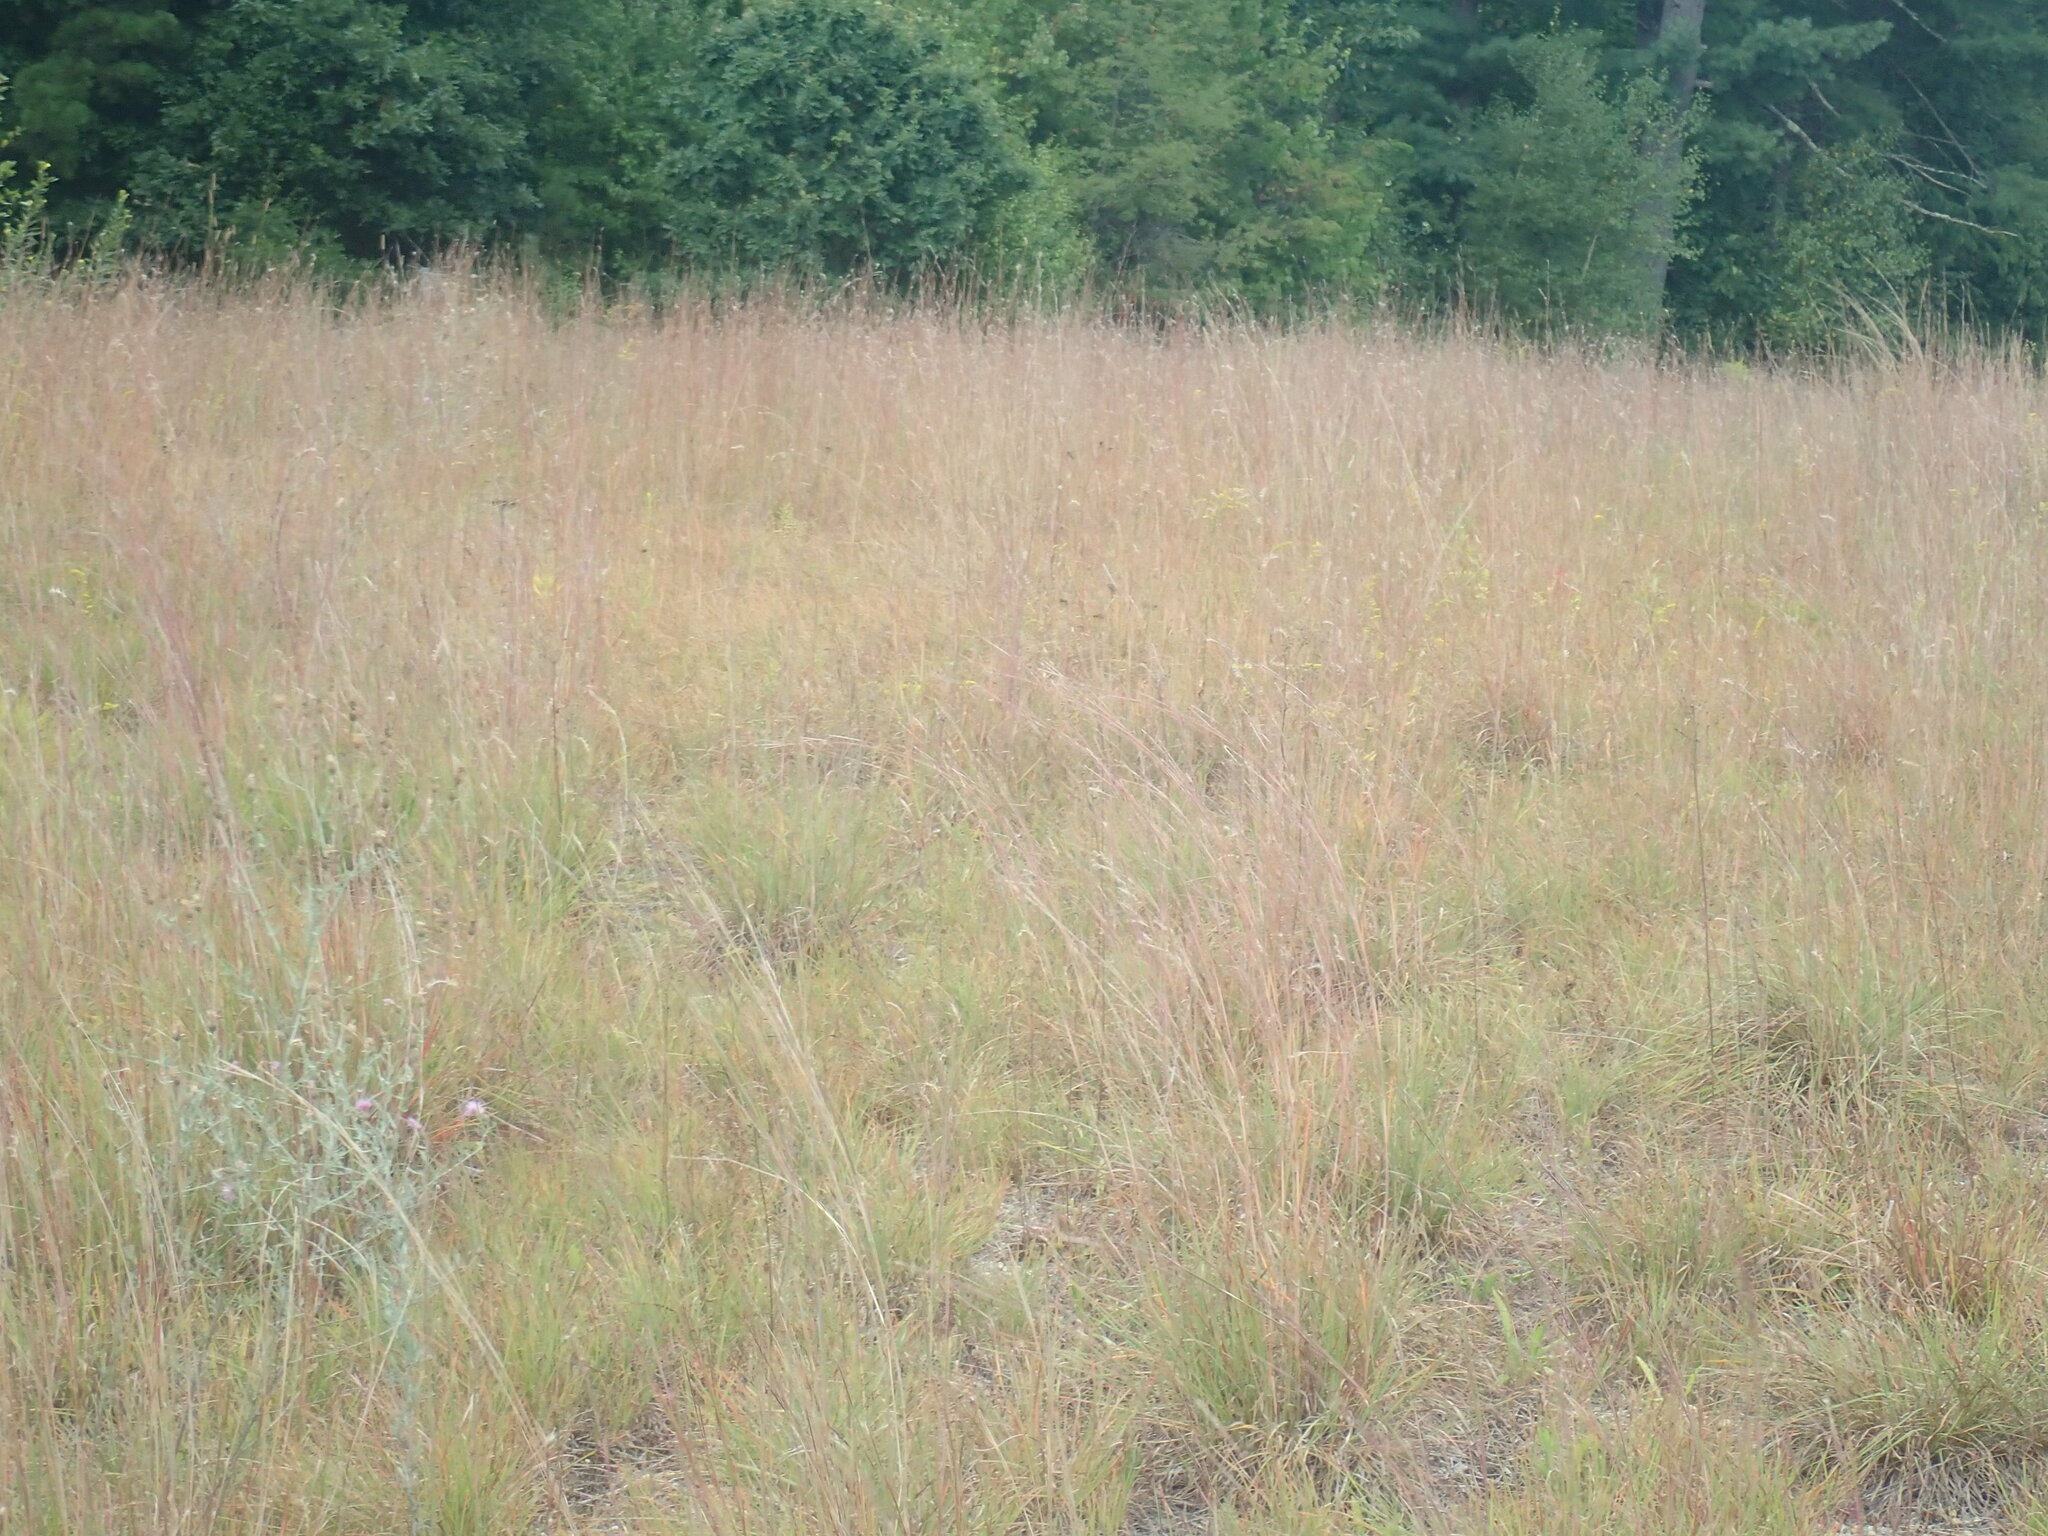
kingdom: Plantae
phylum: Tracheophyta
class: Liliopsida
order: Poales
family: Poaceae
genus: Schizachyrium
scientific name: Schizachyrium scoparium
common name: Little bluestem
